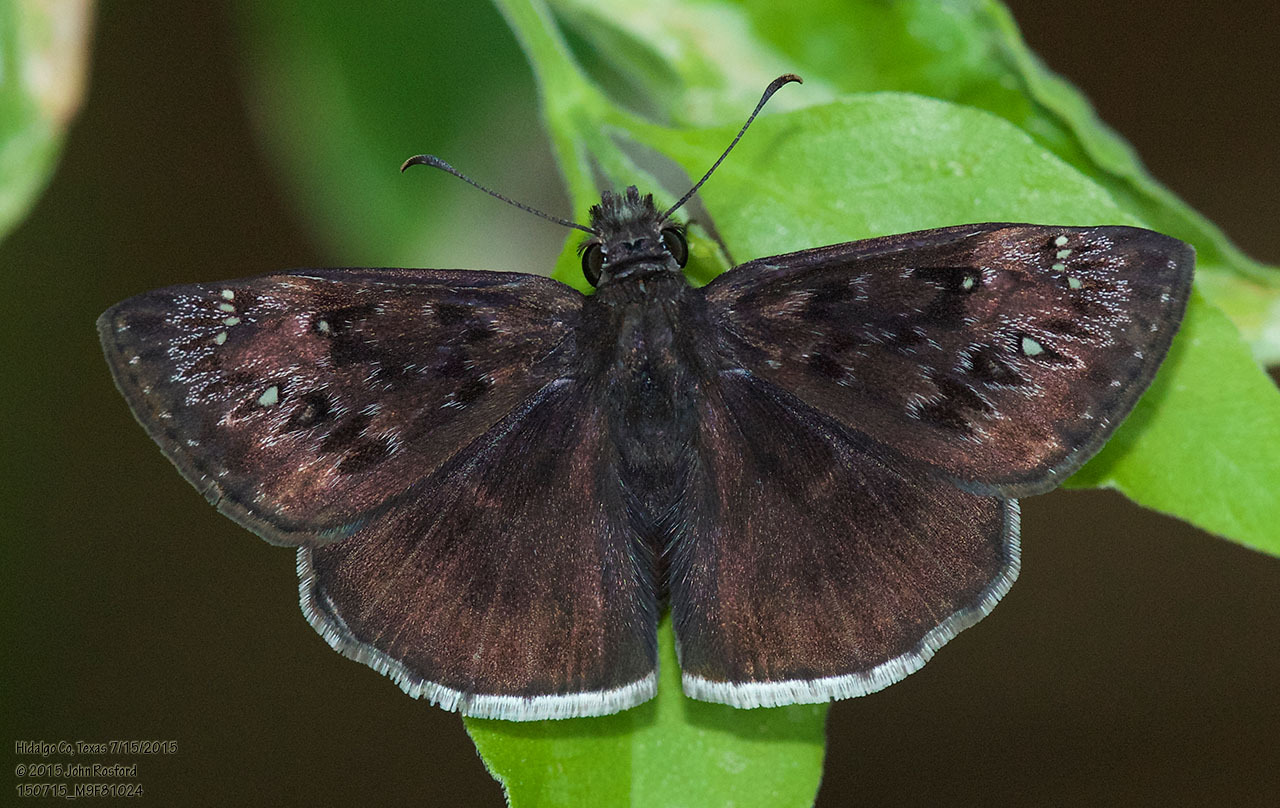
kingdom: Animalia
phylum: Arthropoda
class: Insecta
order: Lepidoptera
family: Hesperiidae
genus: Erynnis
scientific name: Erynnis tristis
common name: Mournful duskywing
